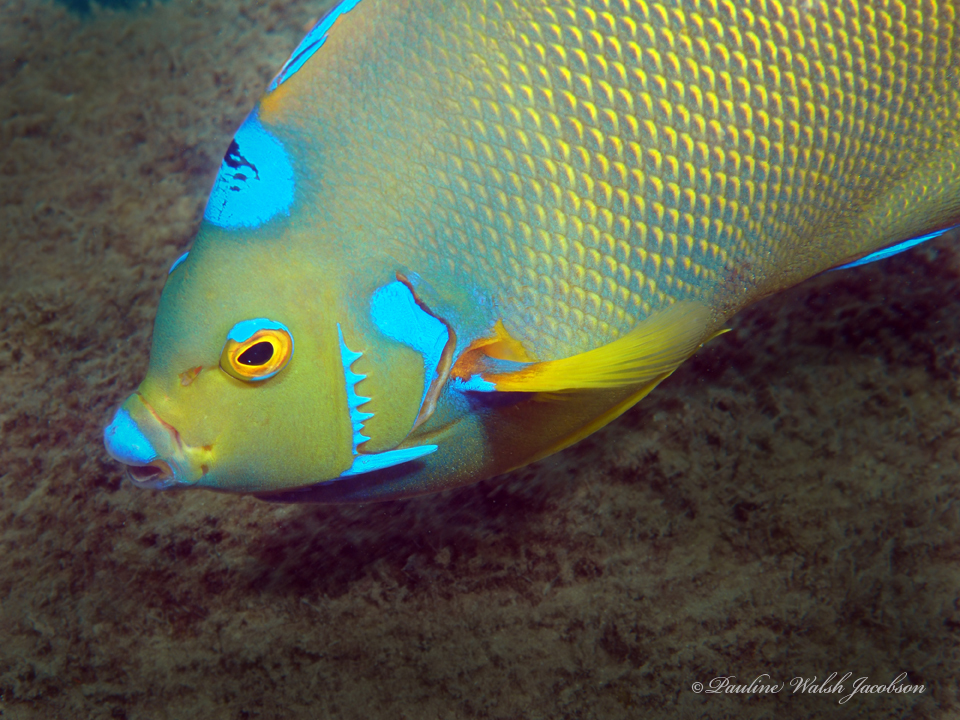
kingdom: Animalia
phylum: Chordata
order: Perciformes
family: Pomacanthidae
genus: Holacanthus
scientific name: Holacanthus ciliaris
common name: Queen angelfish
